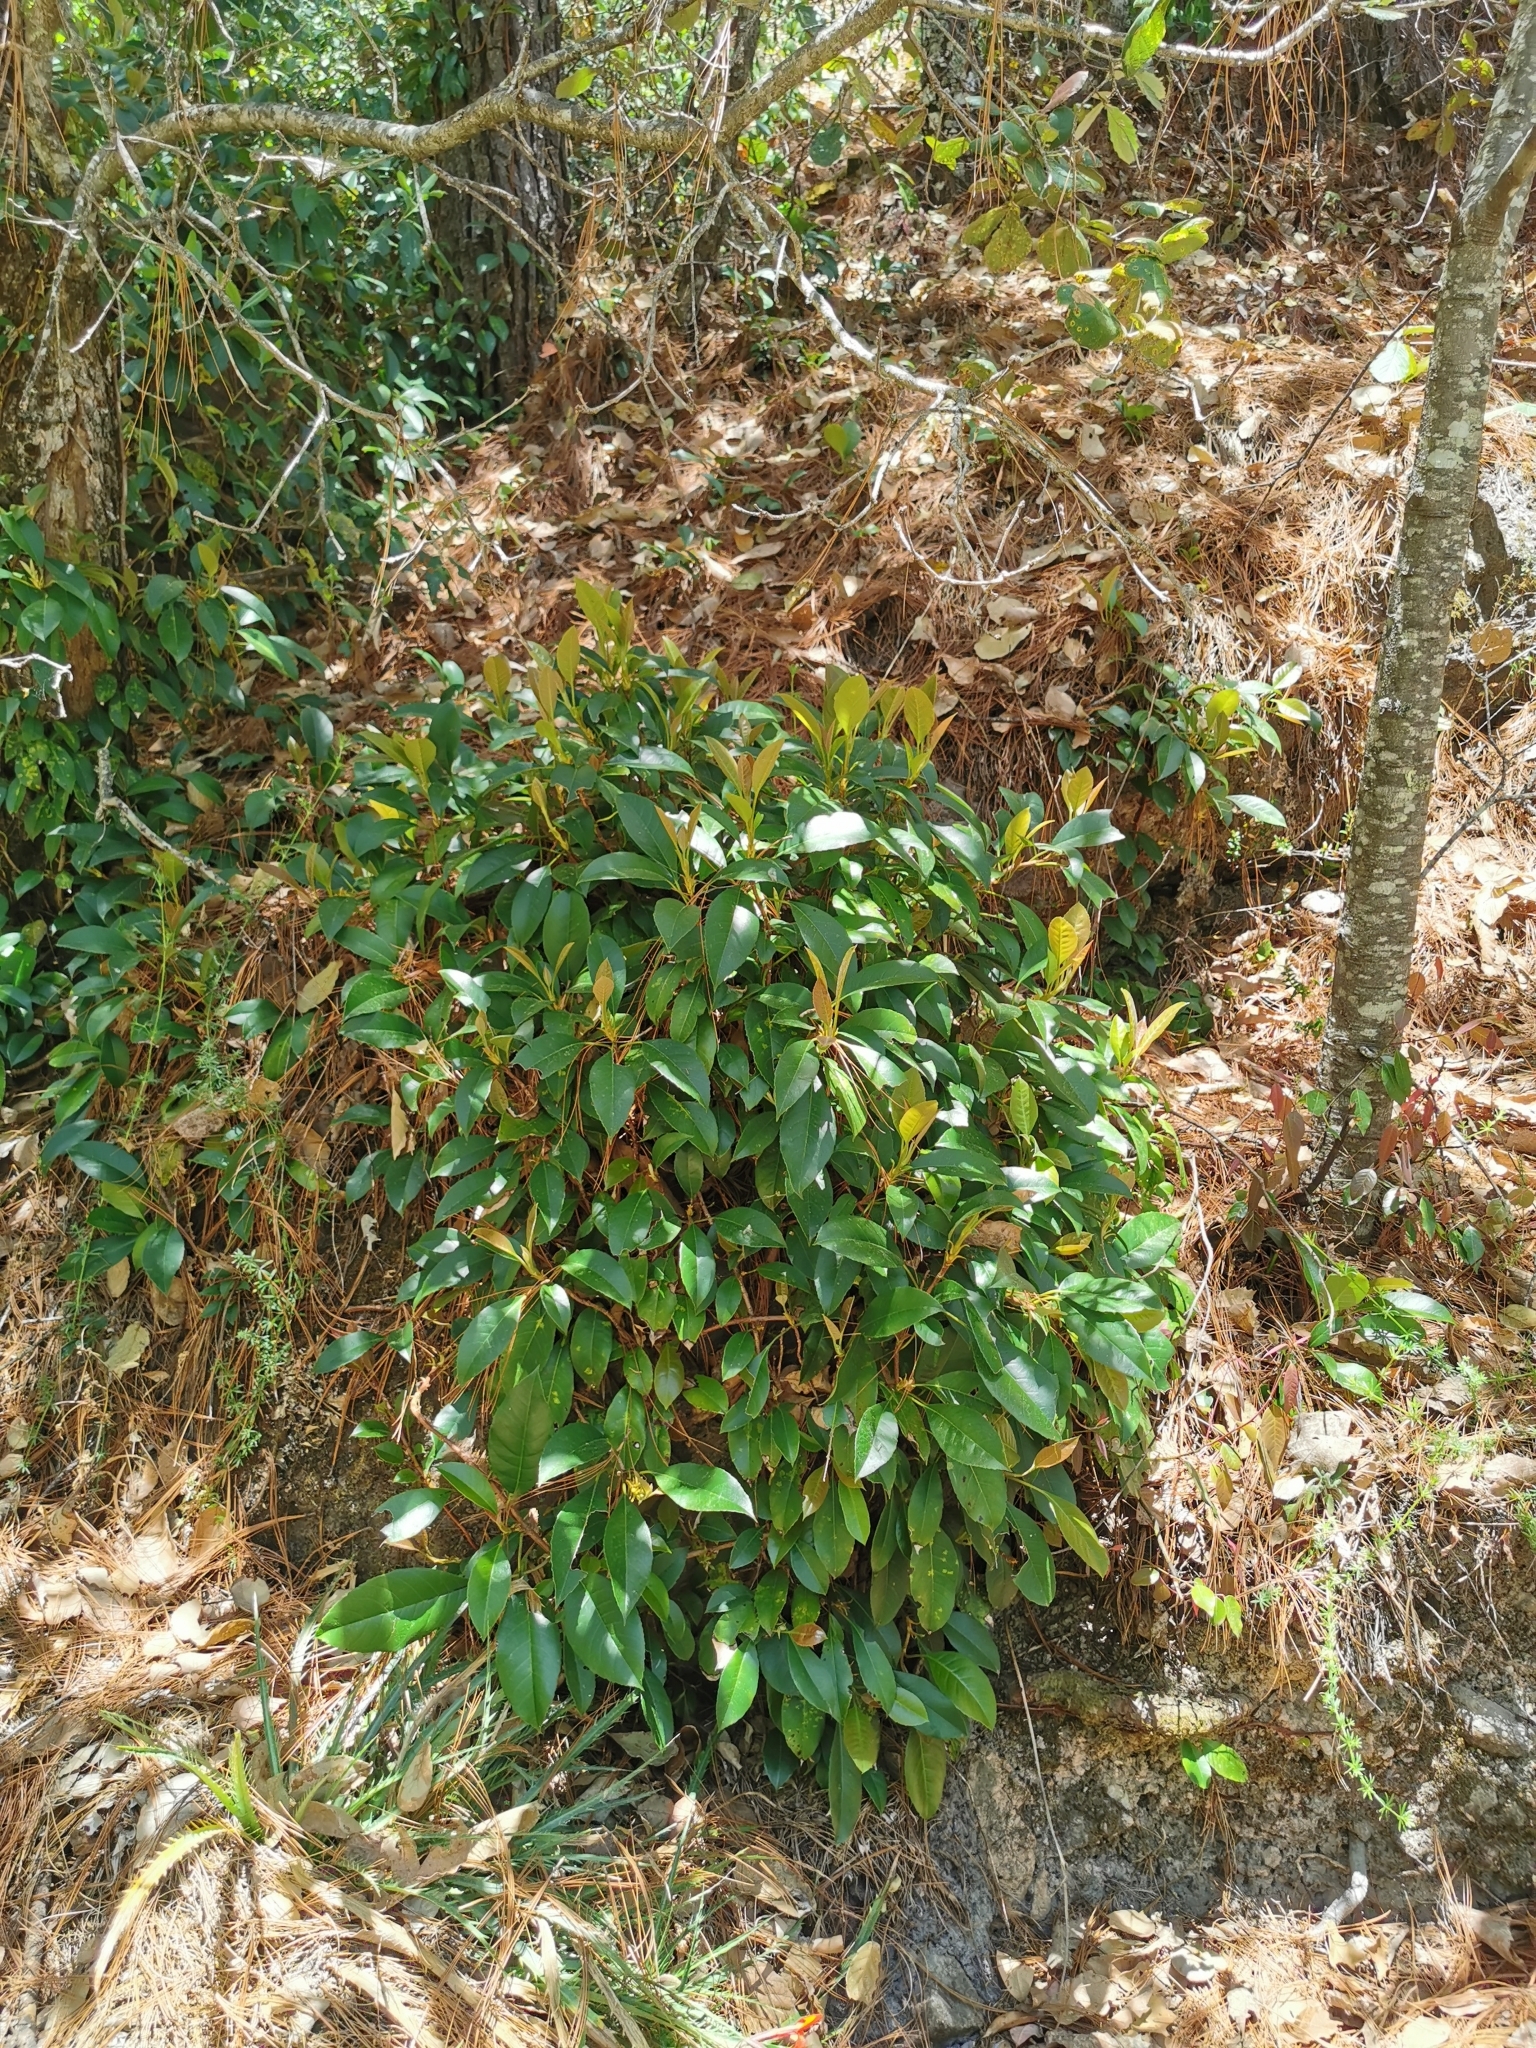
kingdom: Plantae
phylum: Tracheophyta
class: Magnoliopsida
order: Cornales
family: Hydrangeaceae
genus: Hydrangea
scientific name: Hydrangea seemannii
